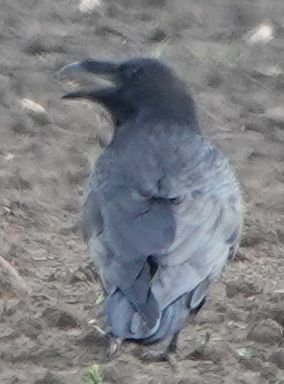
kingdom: Animalia
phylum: Chordata
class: Aves
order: Passeriformes
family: Corvidae
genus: Corvus
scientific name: Corvus corax
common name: Common raven
